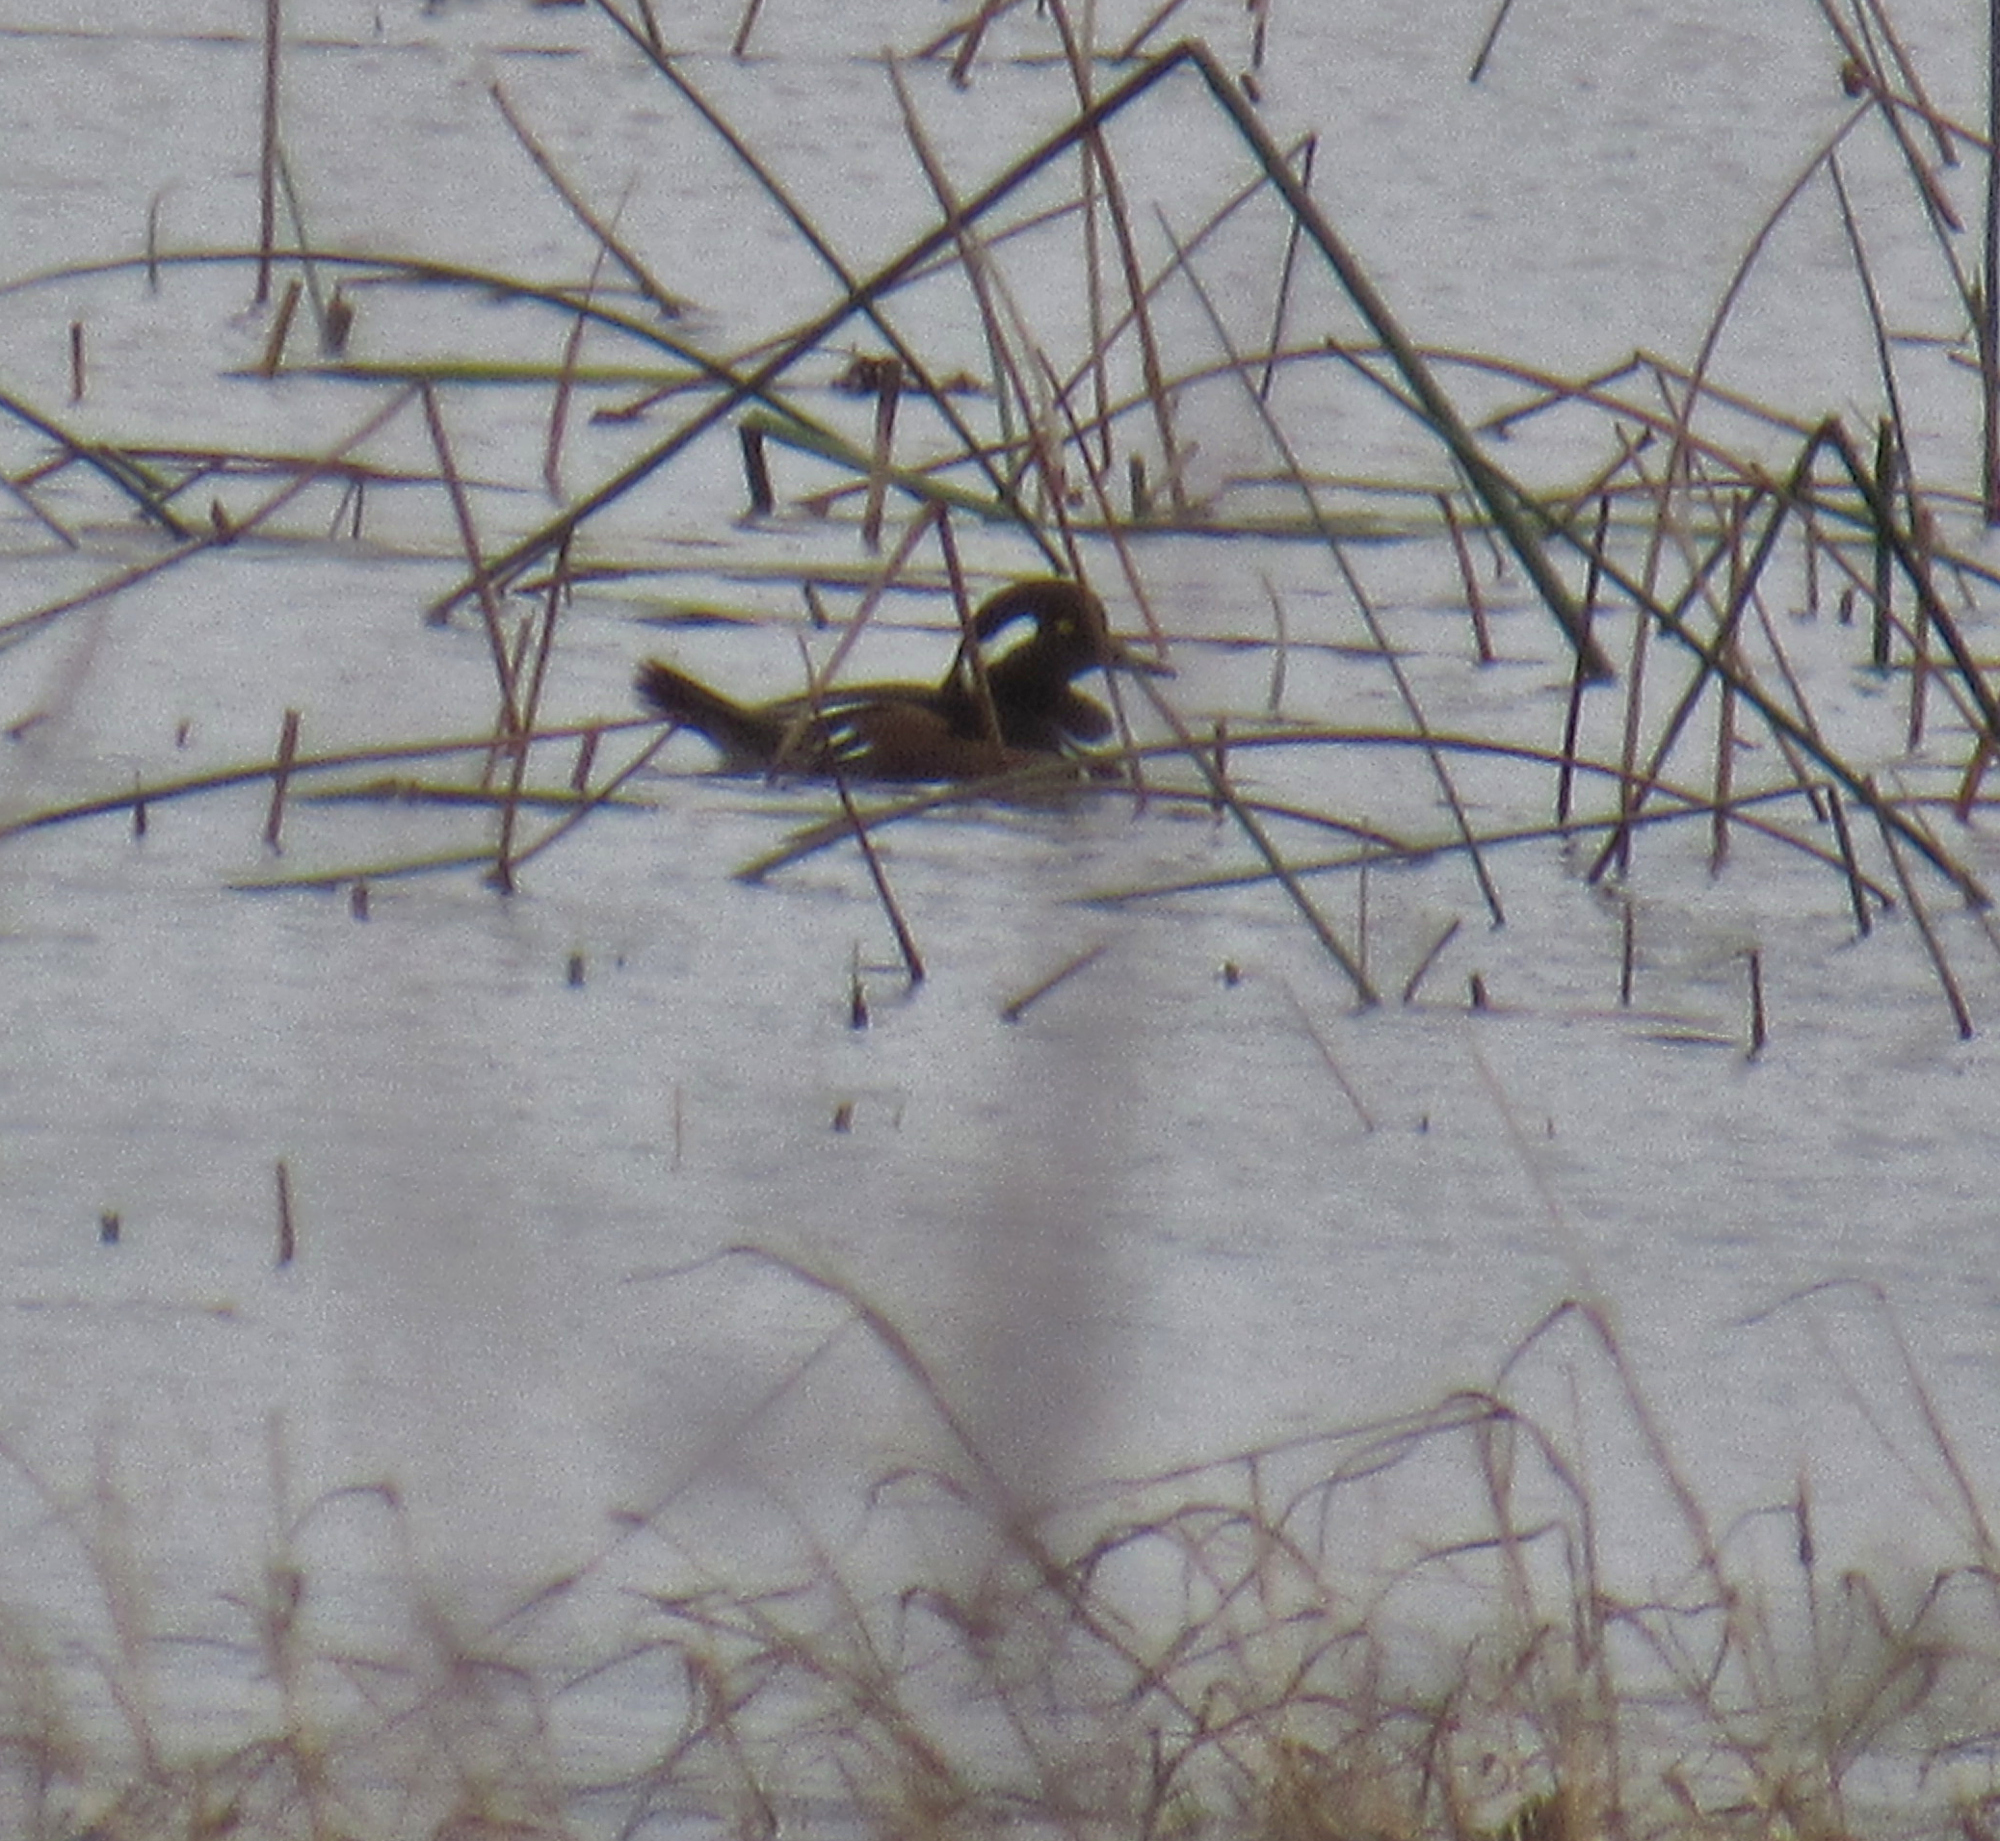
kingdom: Animalia
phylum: Chordata
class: Aves
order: Anseriformes
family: Anatidae
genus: Lophodytes
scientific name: Lophodytes cucullatus
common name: Hooded merganser
